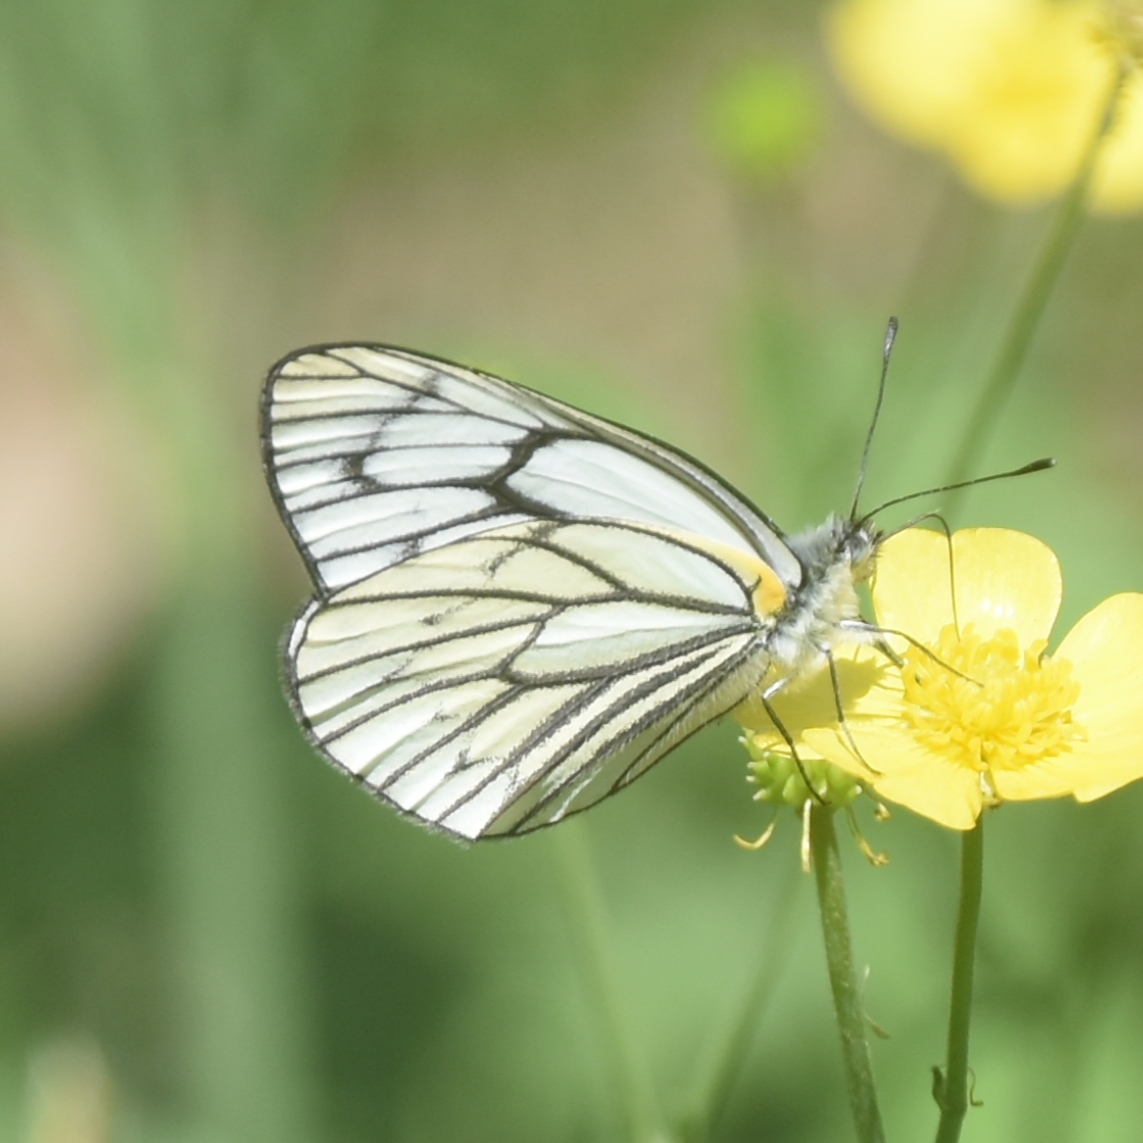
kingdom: Animalia
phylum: Arthropoda
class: Insecta
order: Lepidoptera
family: Pieridae
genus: Aporia
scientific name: Aporia leucodice
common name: Himalayan blackvein
